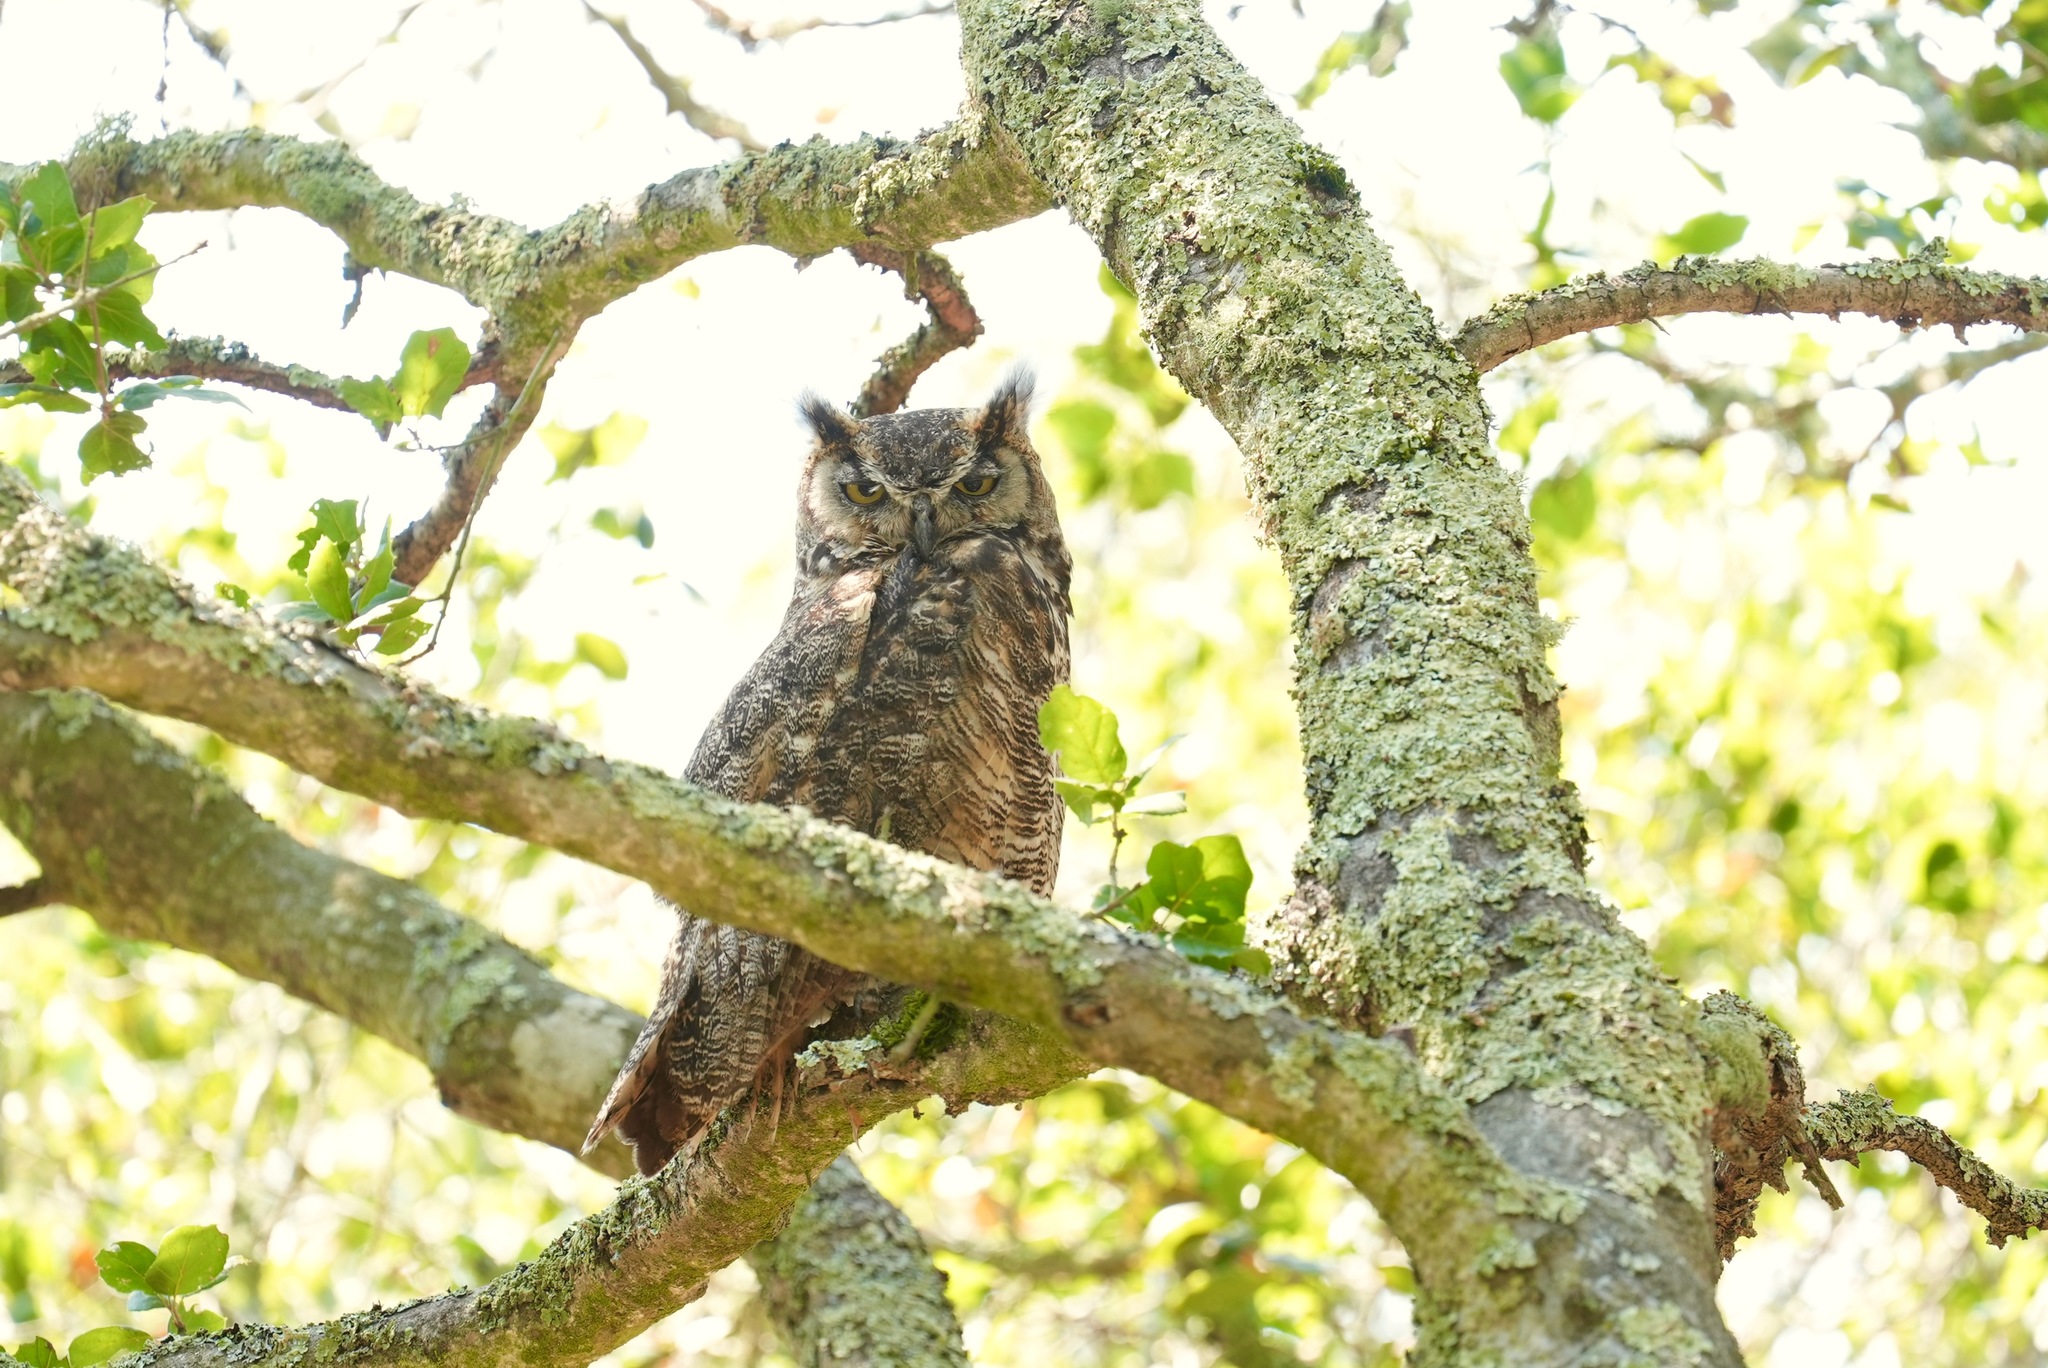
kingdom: Animalia
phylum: Chordata
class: Aves
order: Strigiformes
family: Strigidae
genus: Bubo
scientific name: Bubo virginianus
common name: Great horned owl
